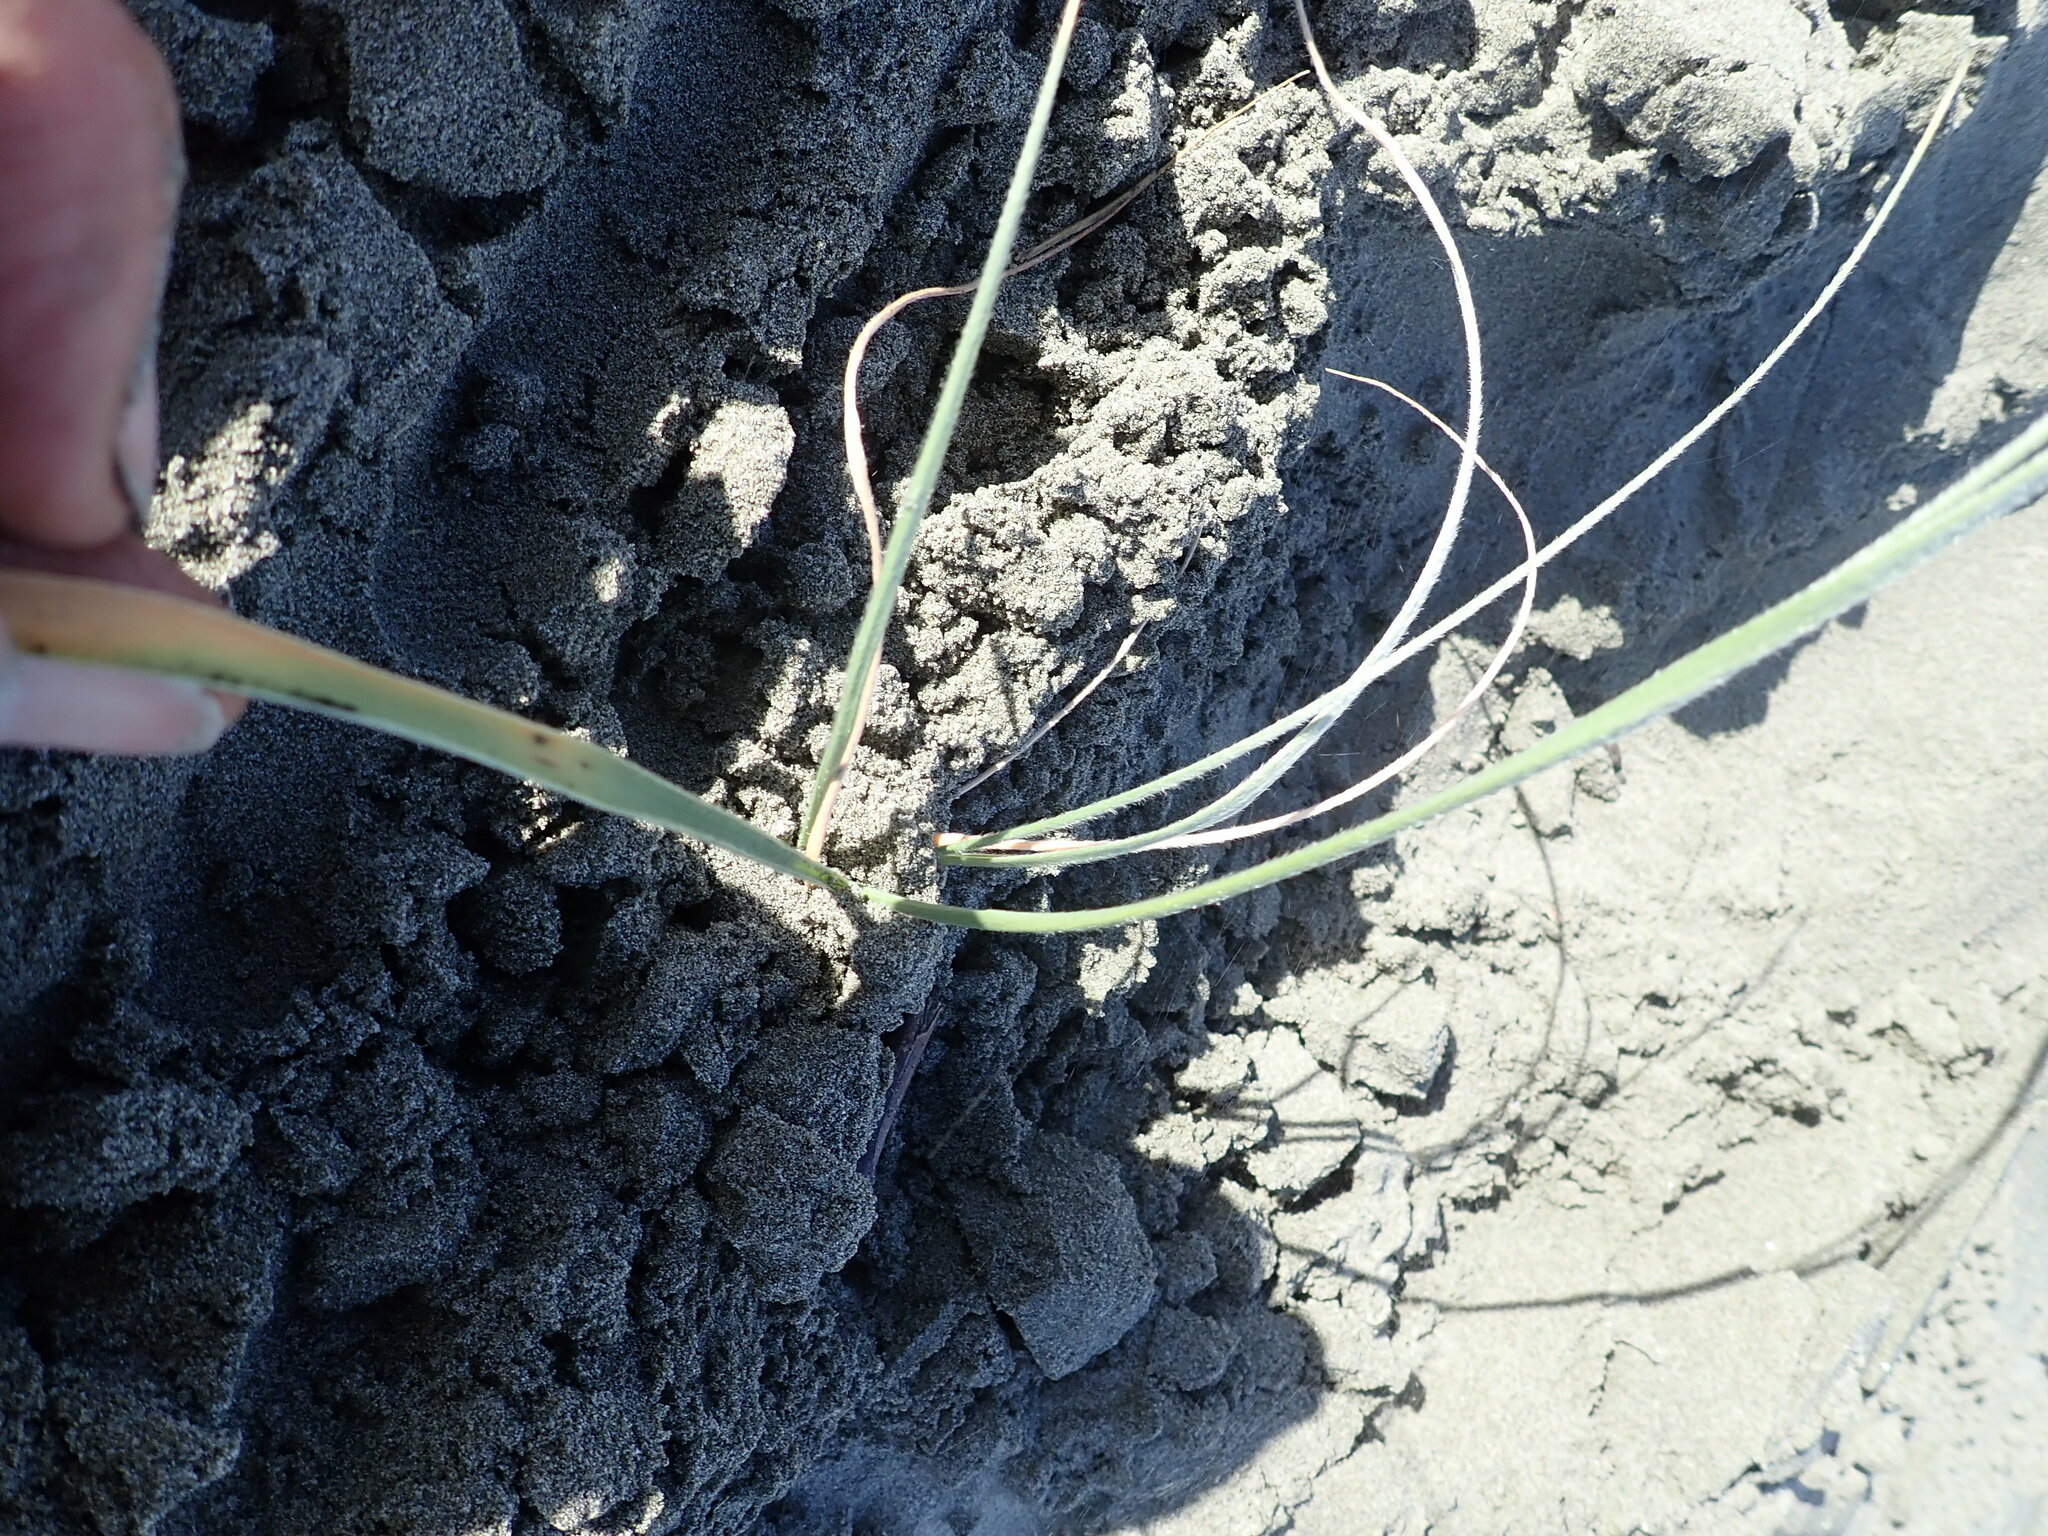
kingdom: Plantae
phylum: Tracheophyta
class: Liliopsida
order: Poales
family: Poaceae
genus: Spinifex
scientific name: Spinifex sericeus
